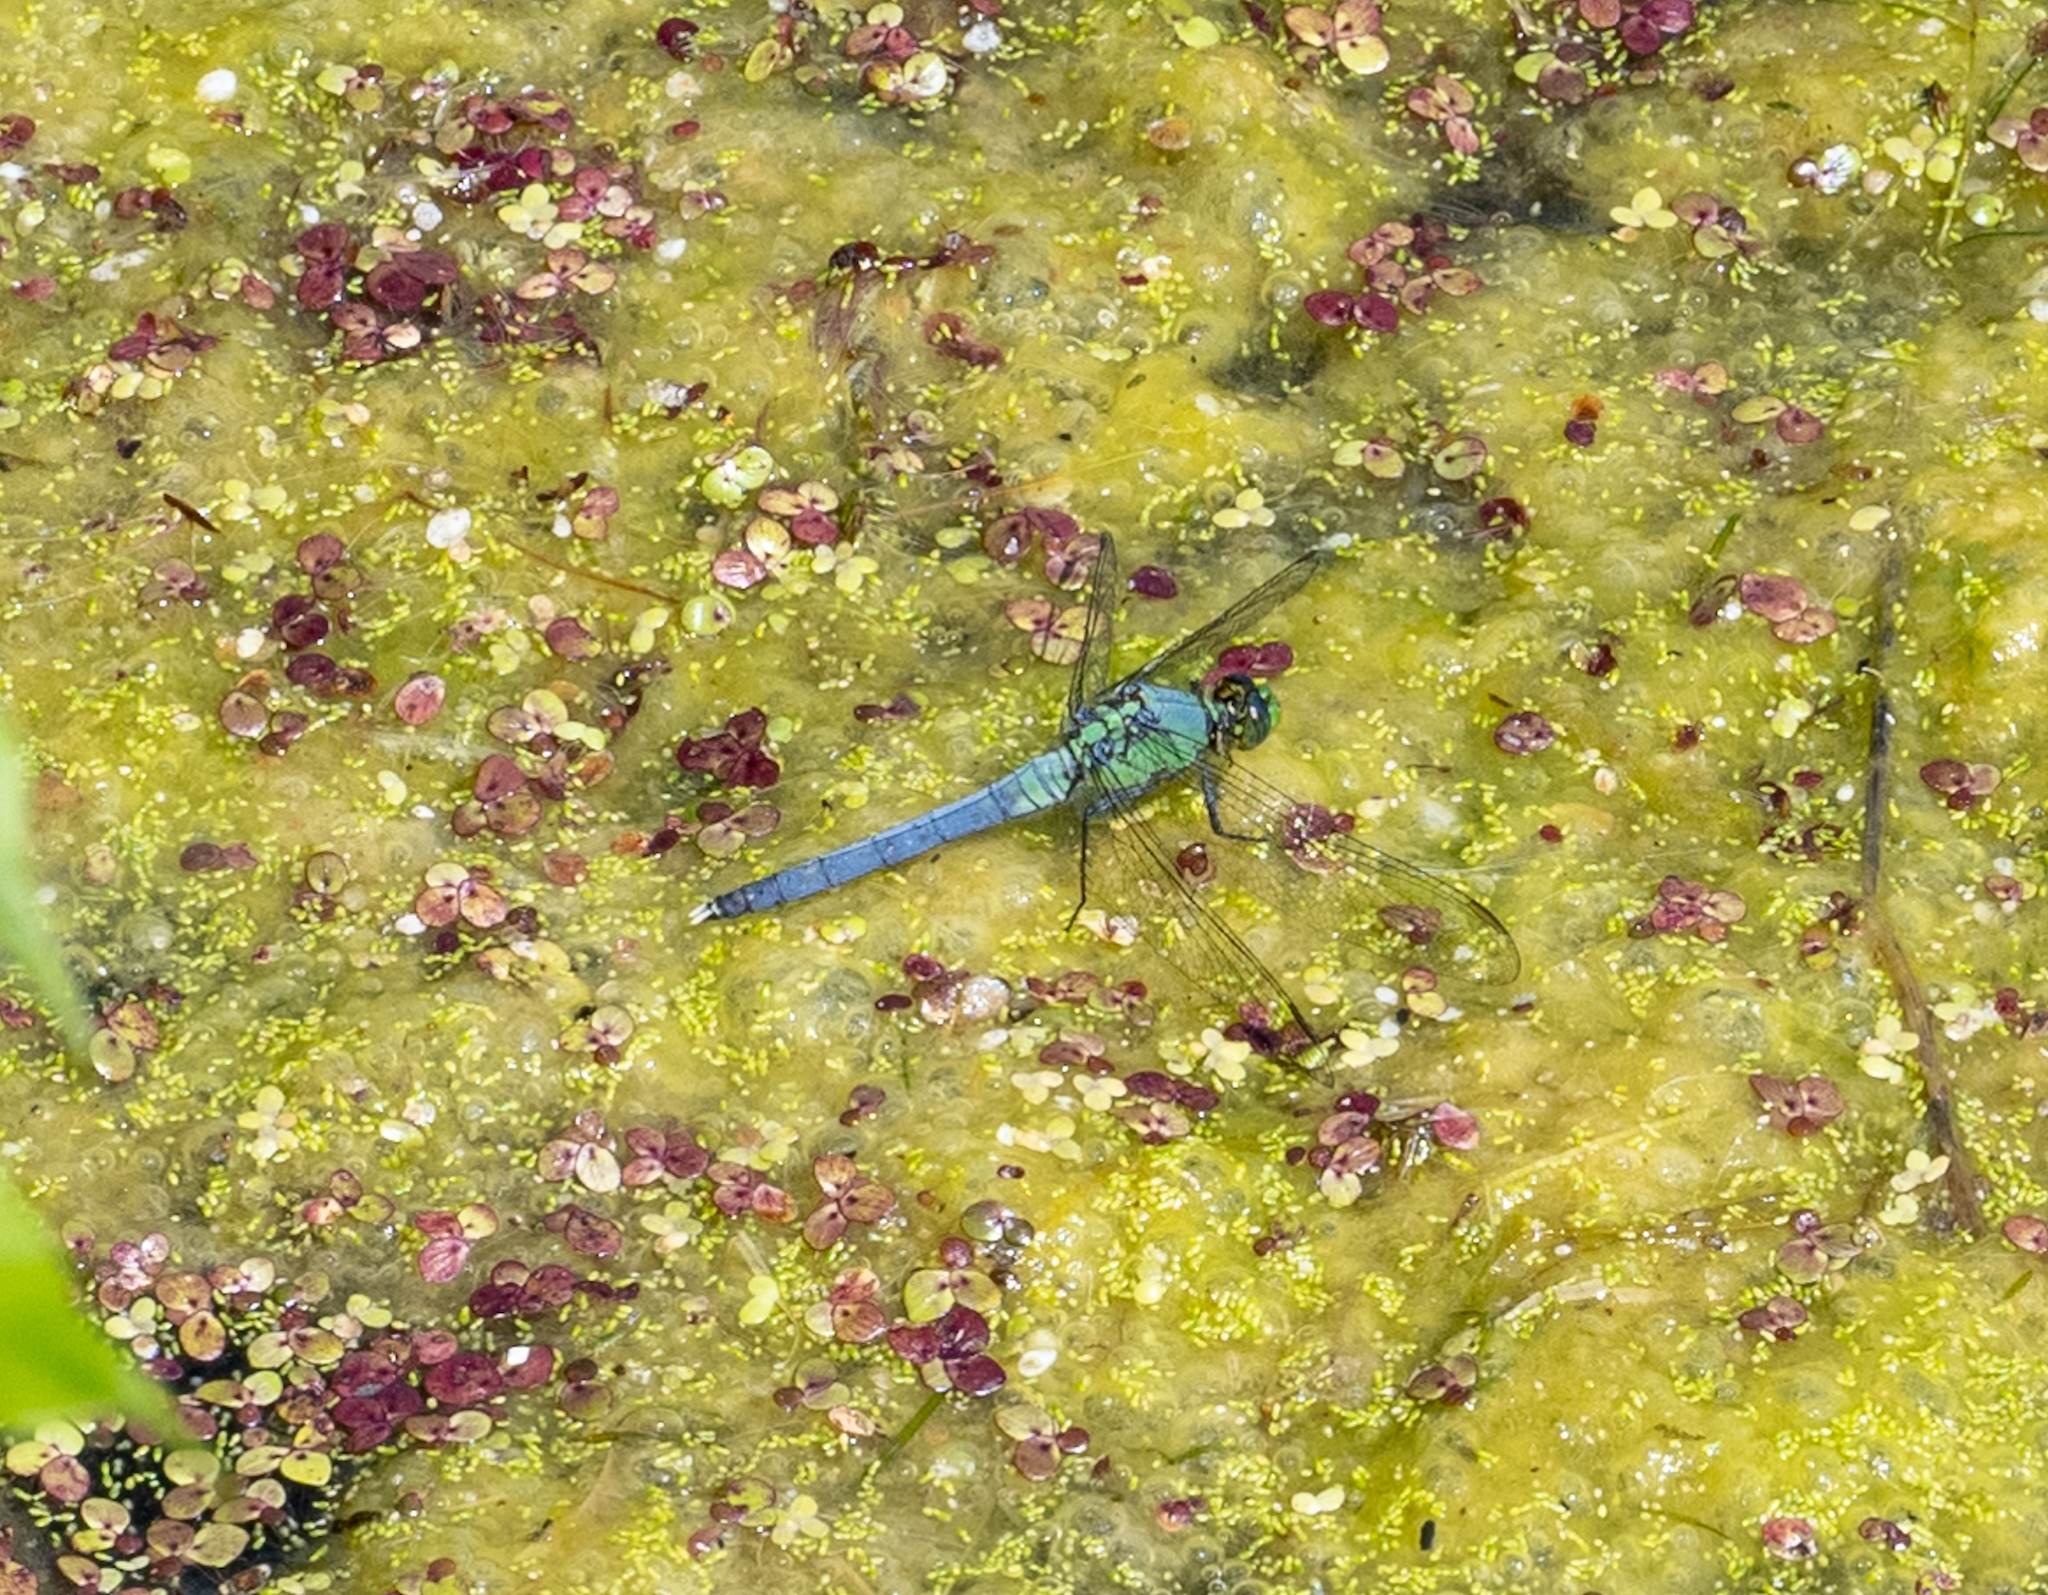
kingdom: Animalia
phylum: Arthropoda
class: Insecta
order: Odonata
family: Libellulidae
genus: Erythemis
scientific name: Erythemis simplicicollis
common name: Eastern pondhawk
